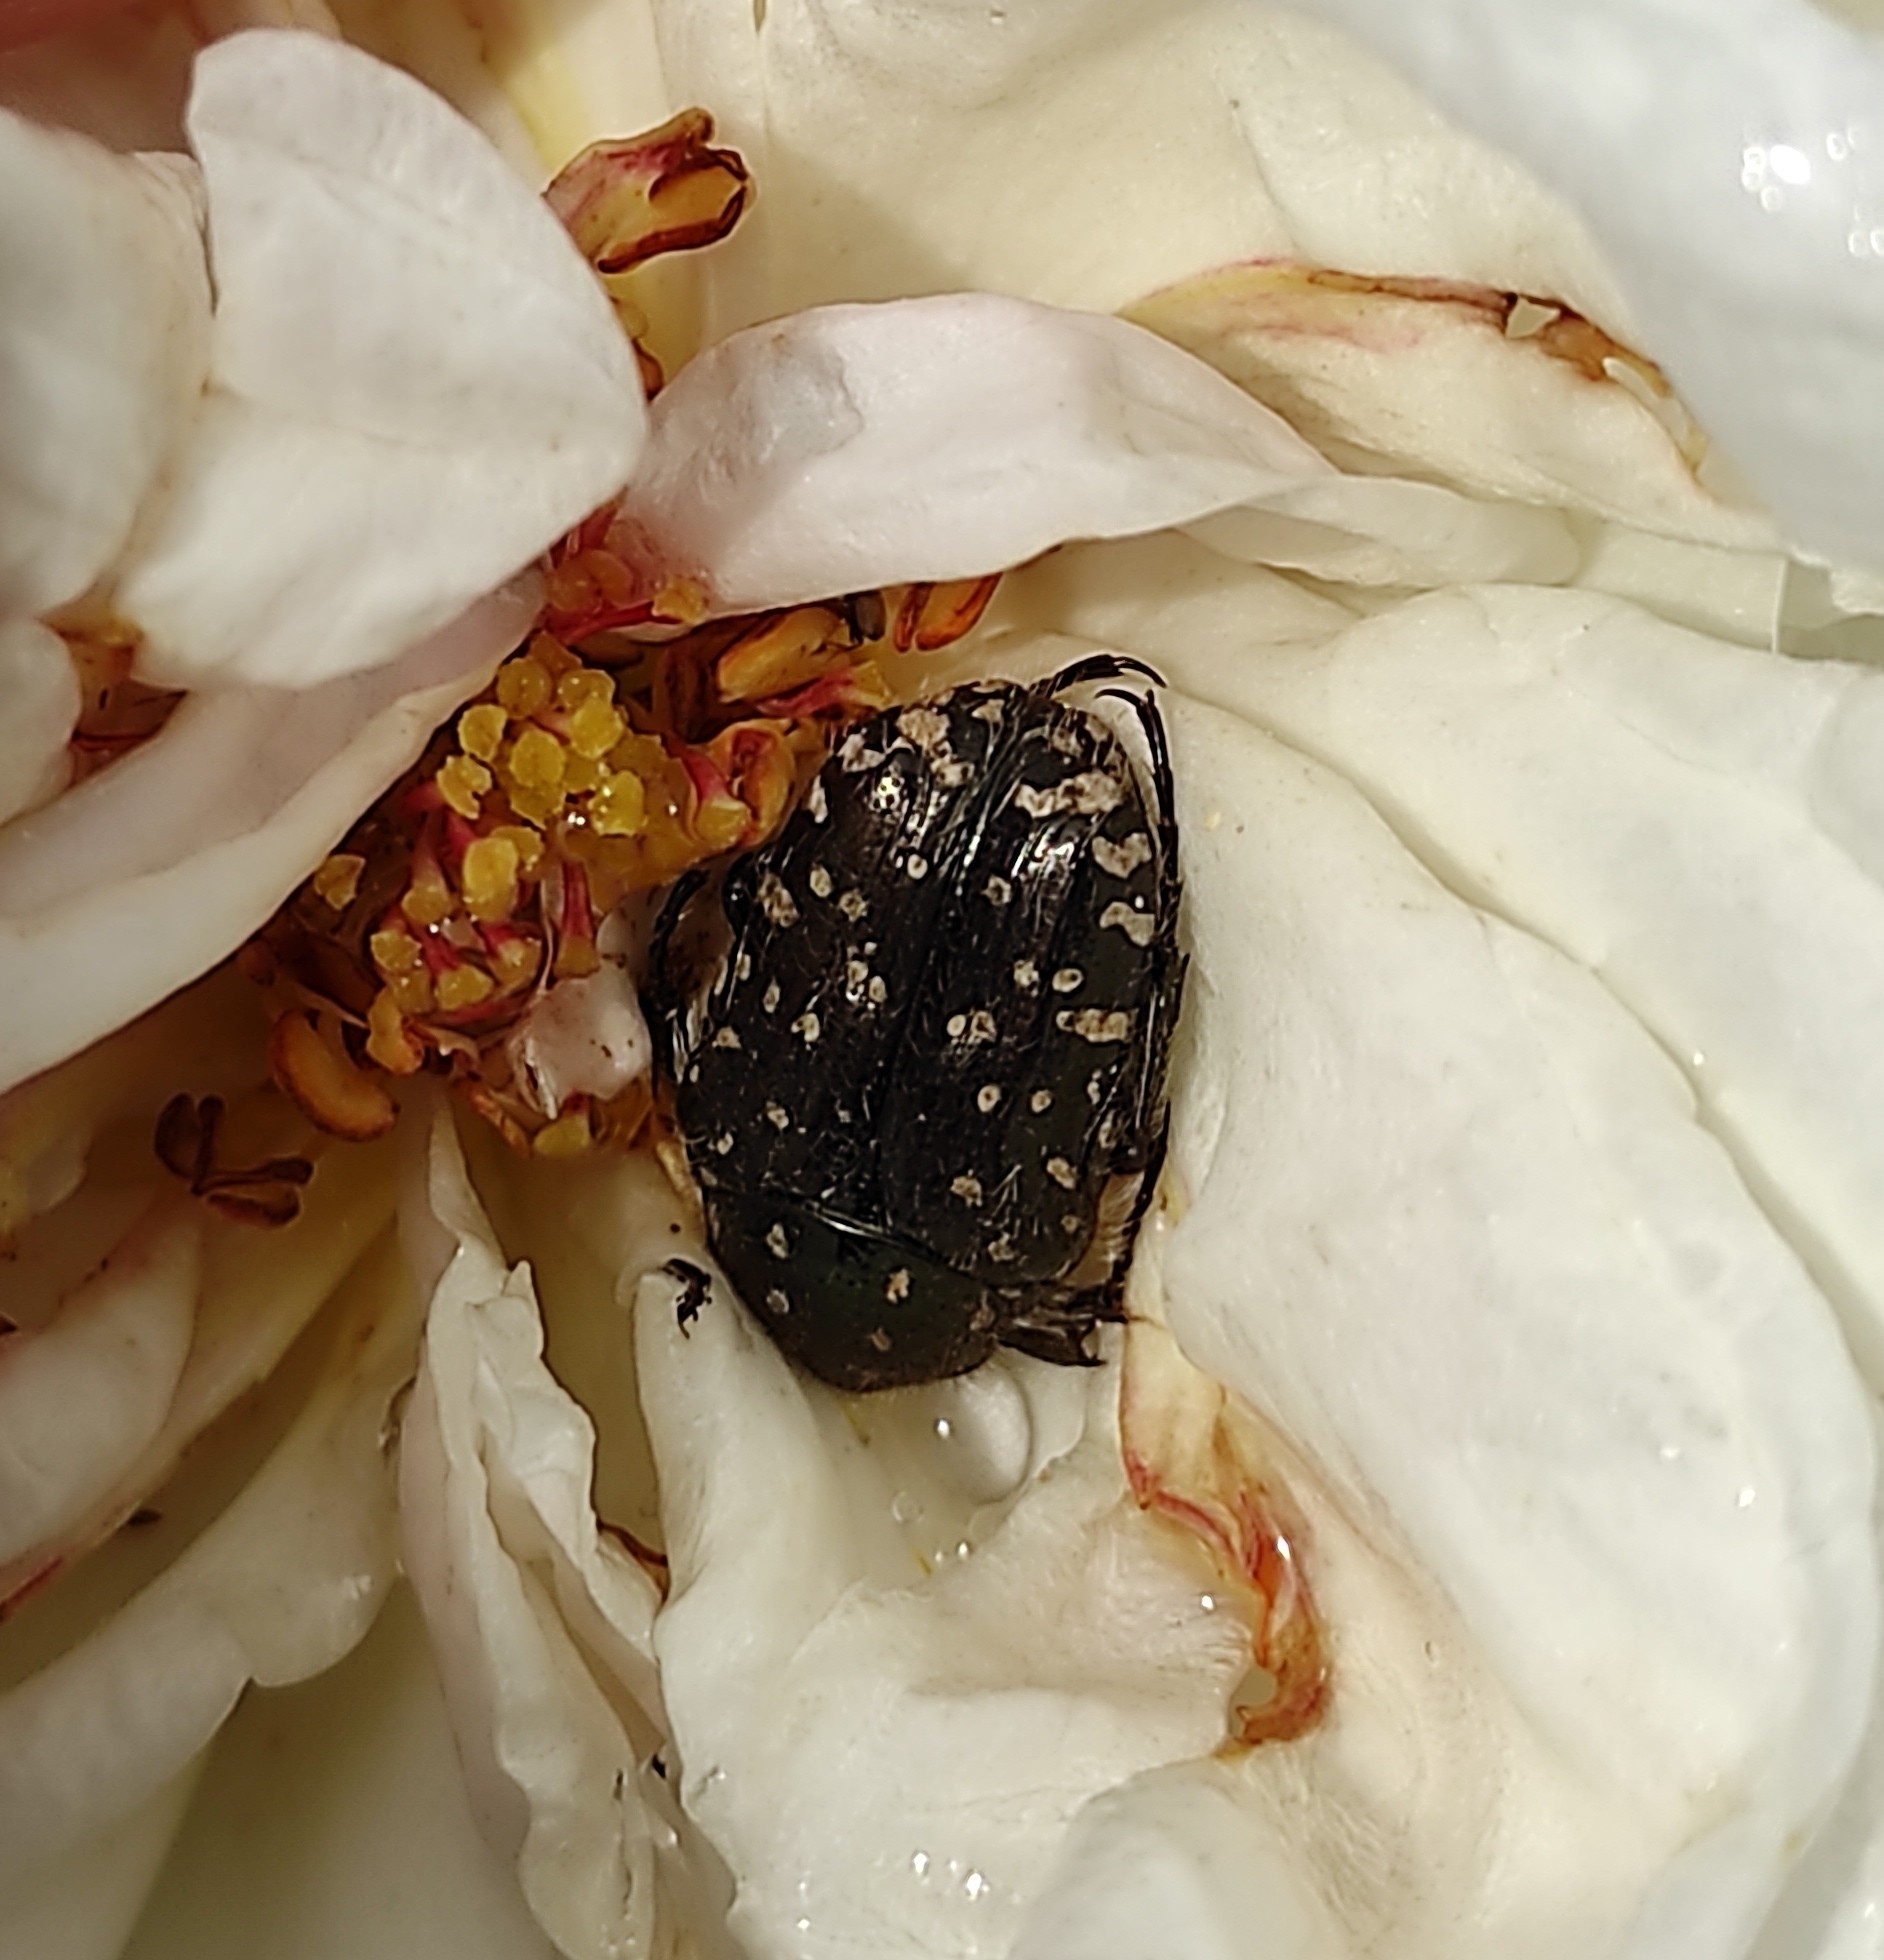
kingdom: Animalia
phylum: Arthropoda
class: Insecta
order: Coleoptera
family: Scarabaeidae
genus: Oxythyrea
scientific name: Oxythyrea funesta
